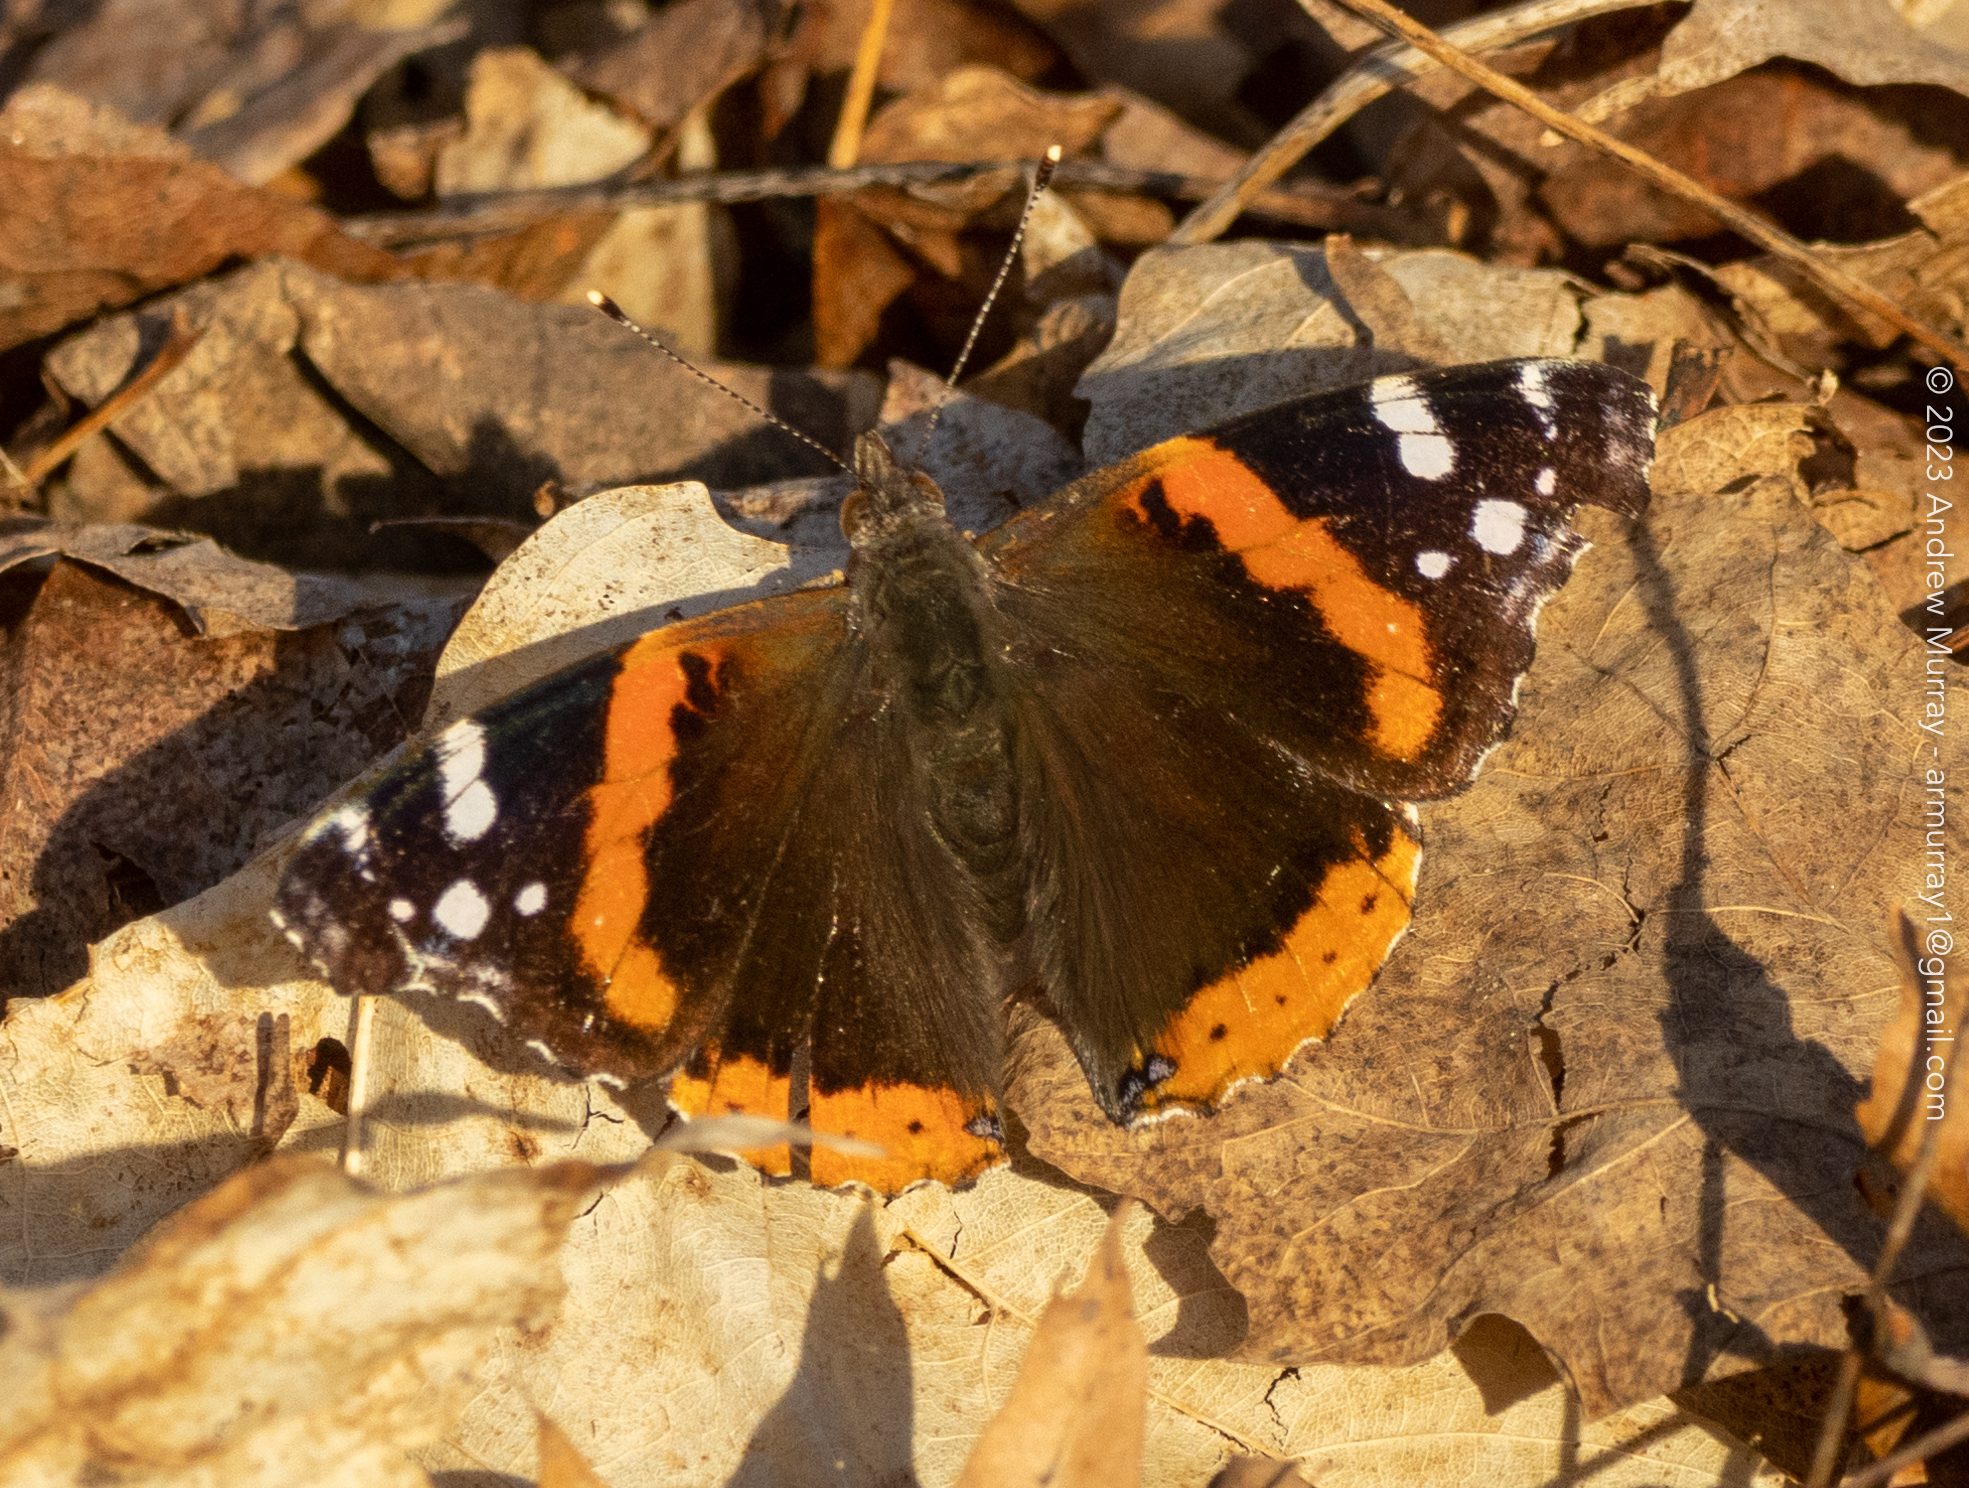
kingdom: Animalia
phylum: Arthropoda
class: Insecta
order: Lepidoptera
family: Nymphalidae
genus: Vanessa
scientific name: Vanessa atalanta
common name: Red admiral
